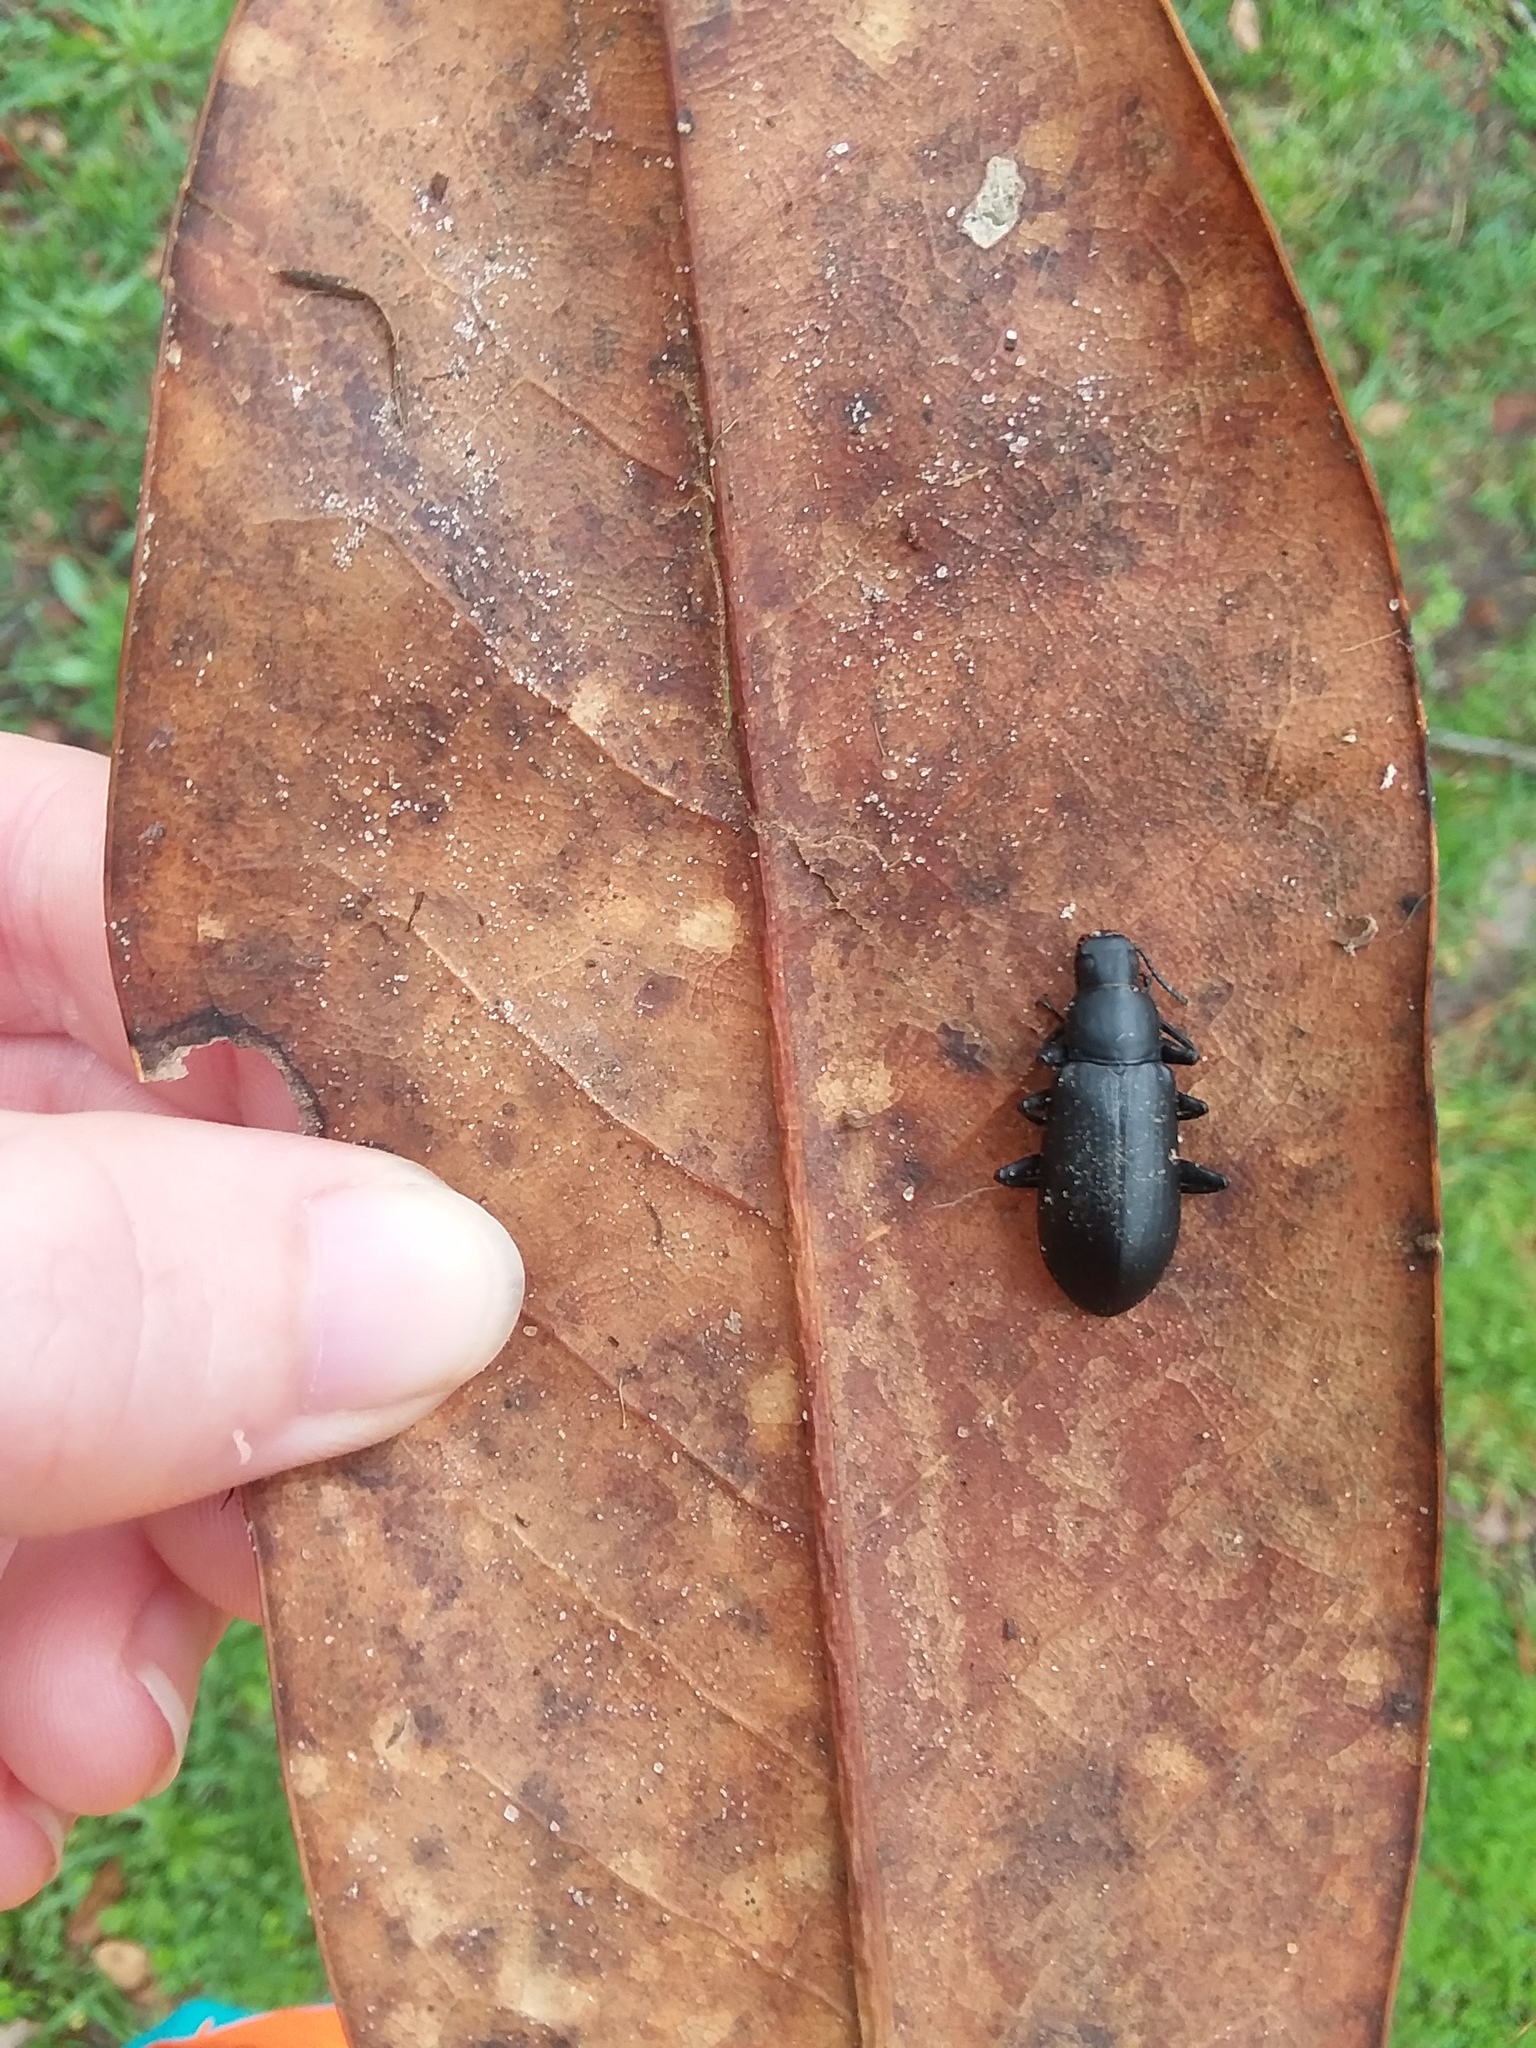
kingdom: Animalia
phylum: Arthropoda
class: Insecta
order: Coleoptera
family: Tenebrionidae
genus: Alobates
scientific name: Alobates
